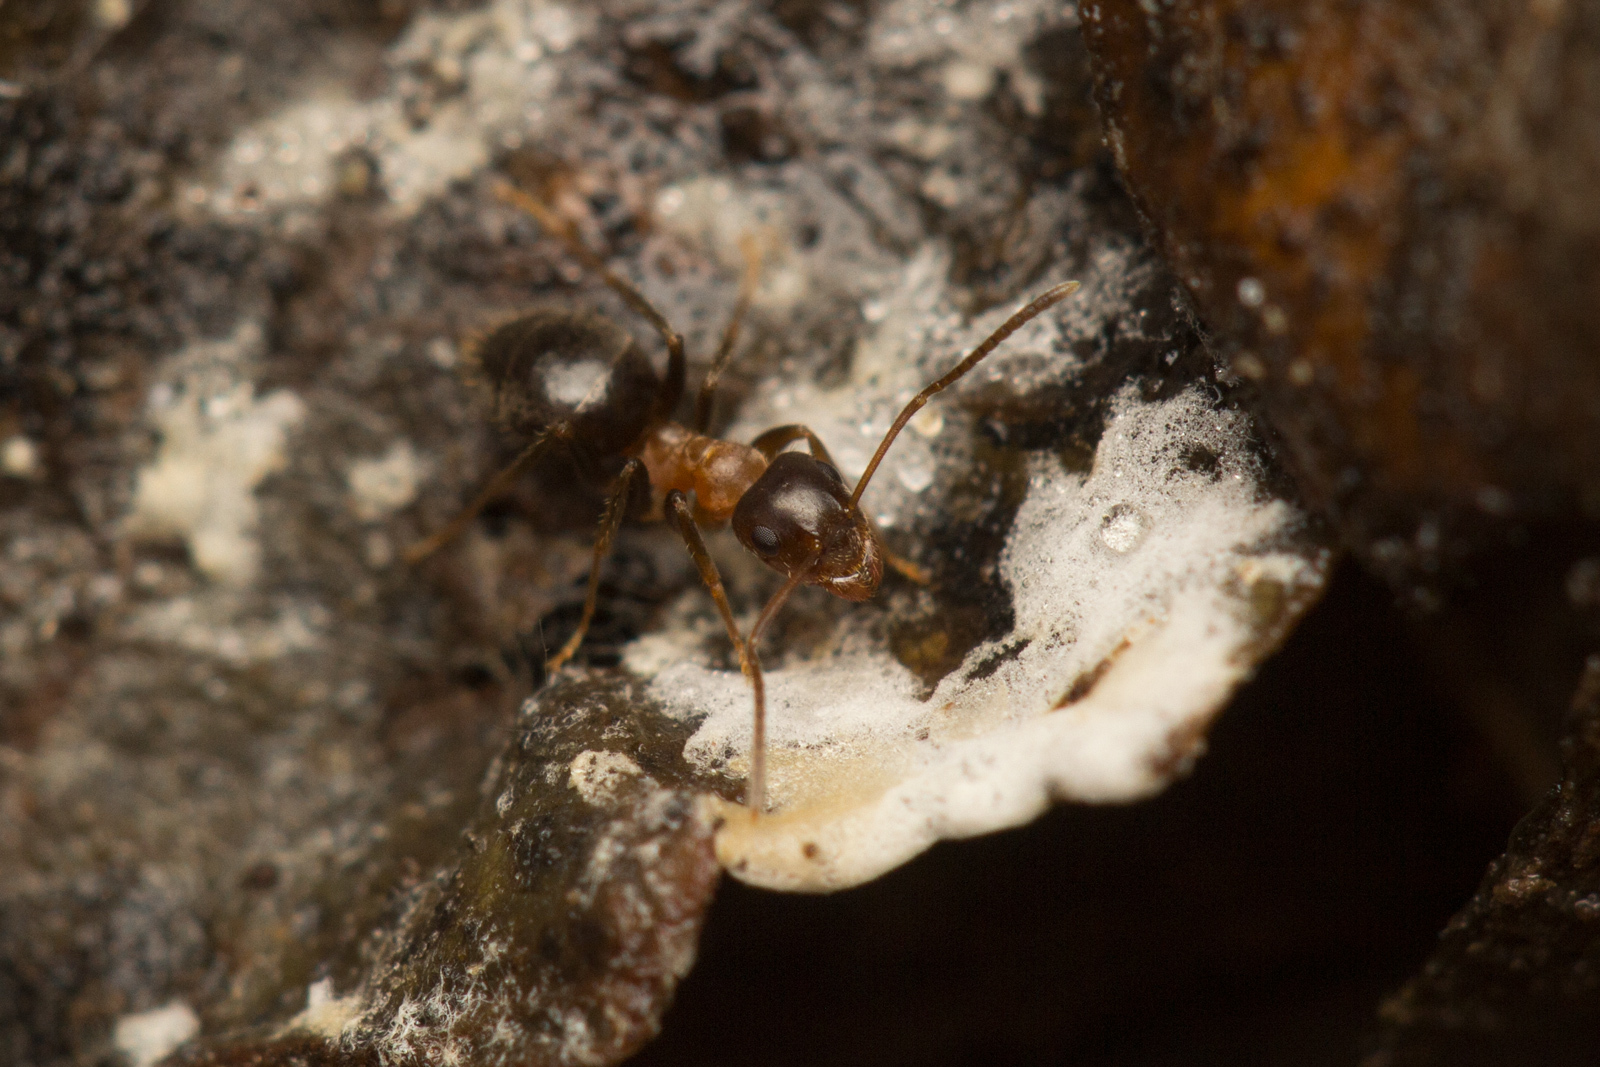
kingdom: Animalia
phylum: Arthropoda
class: Insecta
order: Hymenoptera
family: Formicidae
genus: Lasius
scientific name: Lasius emarginatus
